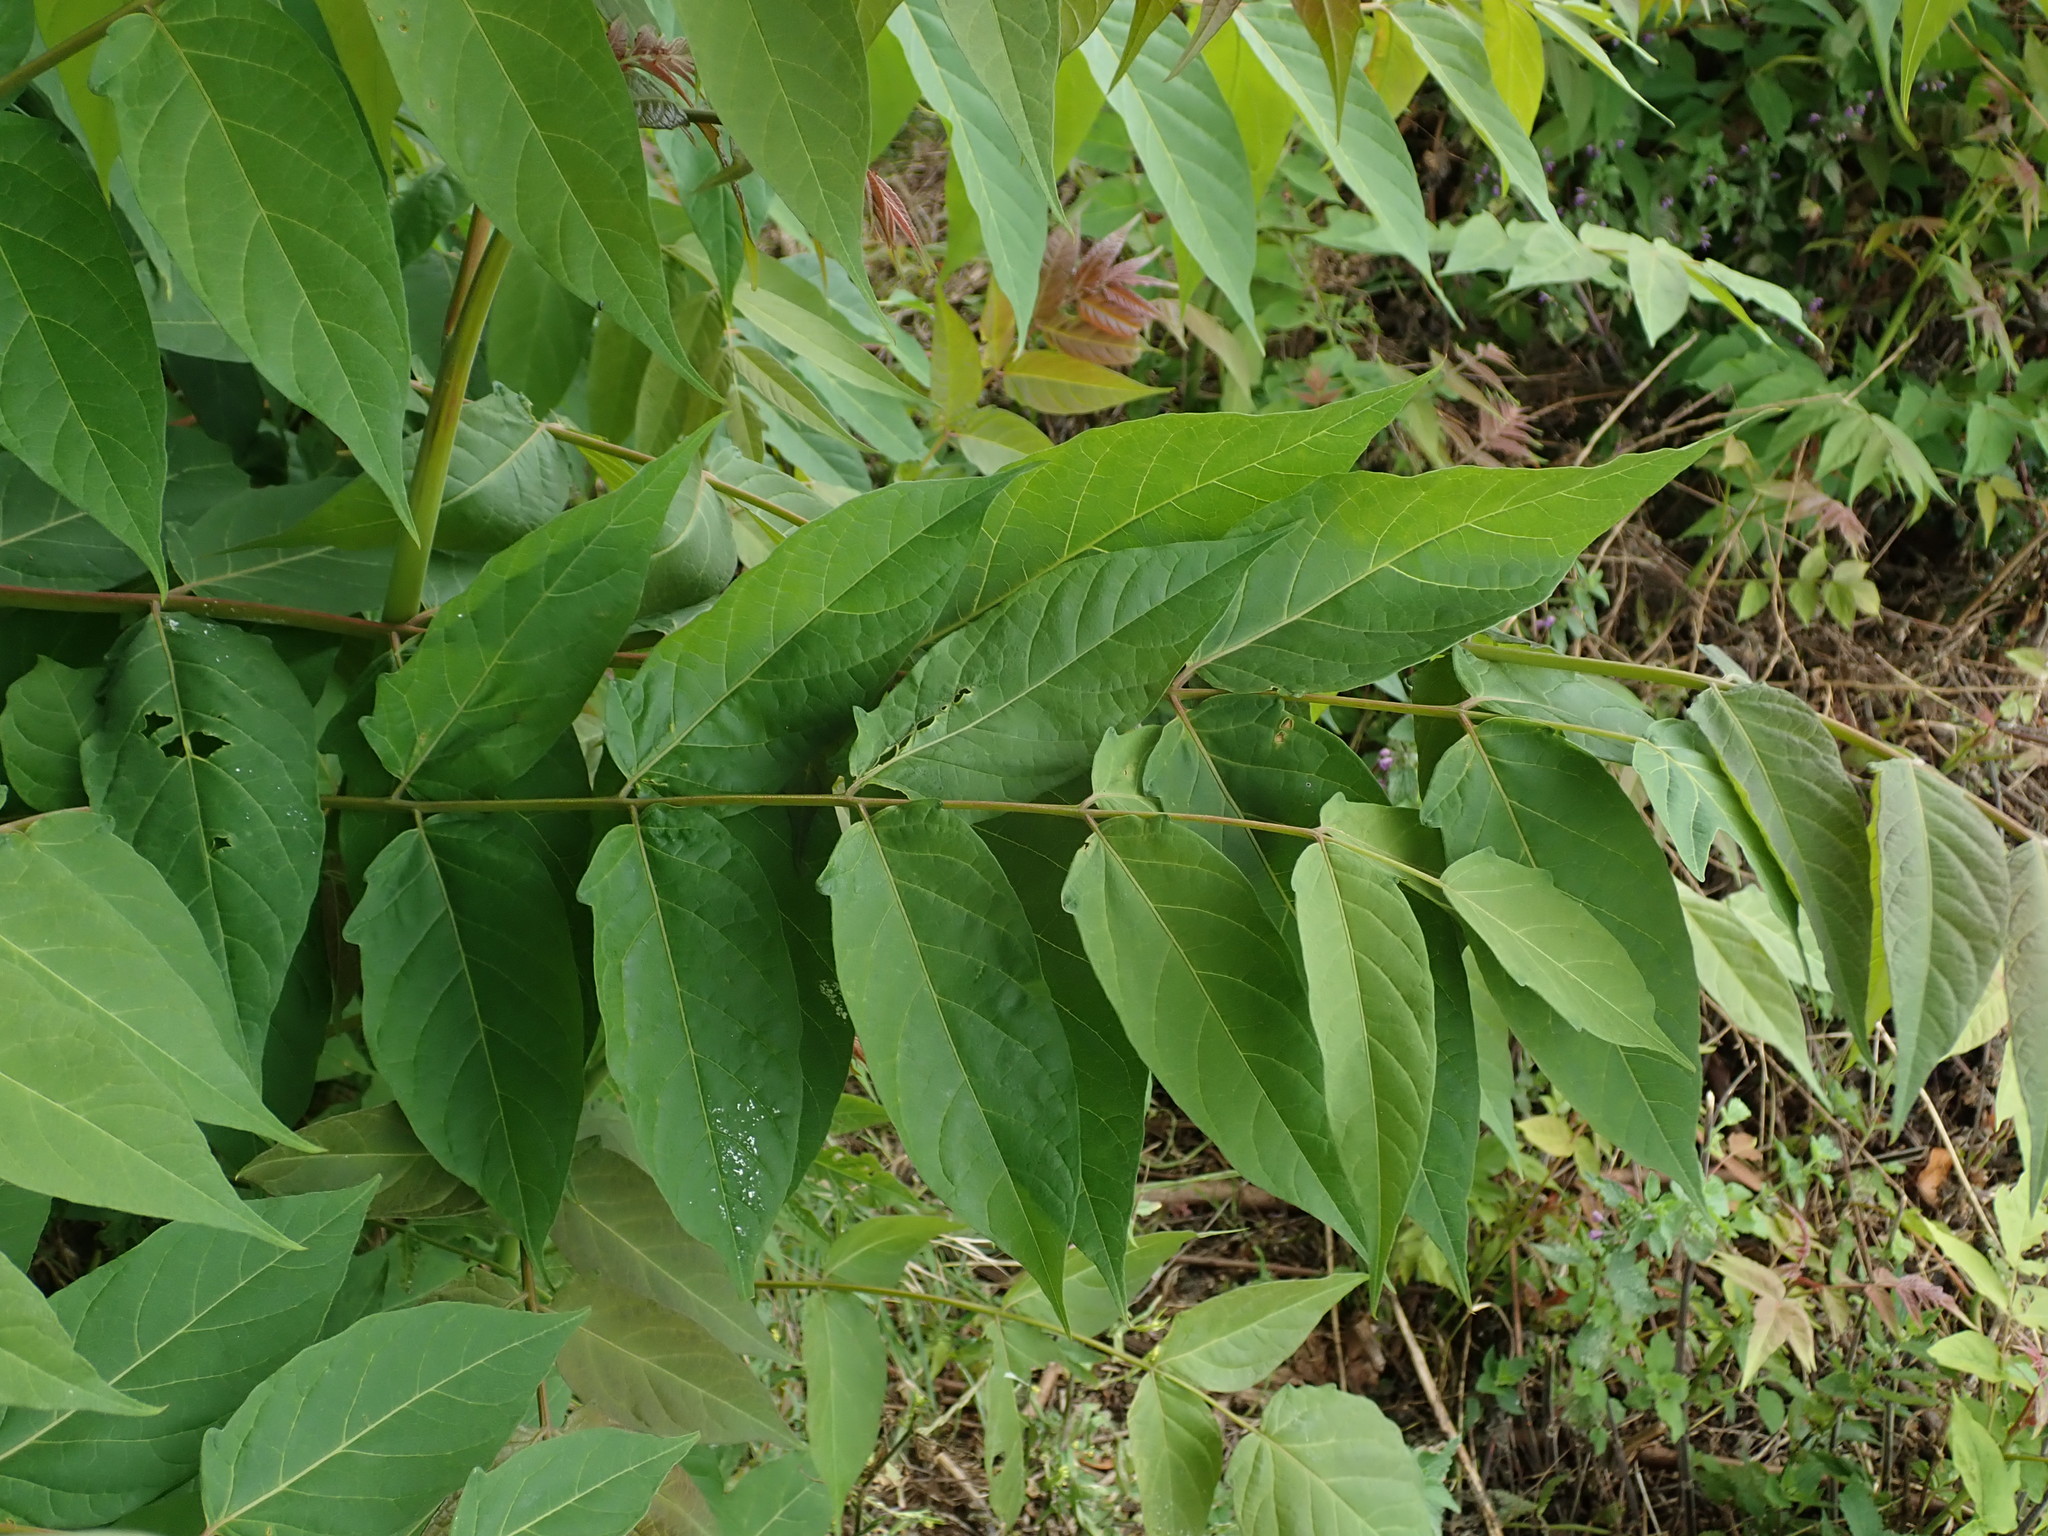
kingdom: Plantae
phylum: Tracheophyta
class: Magnoliopsida
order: Sapindales
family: Simaroubaceae
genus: Ailanthus
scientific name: Ailanthus altissima
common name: Tree-of-heaven
